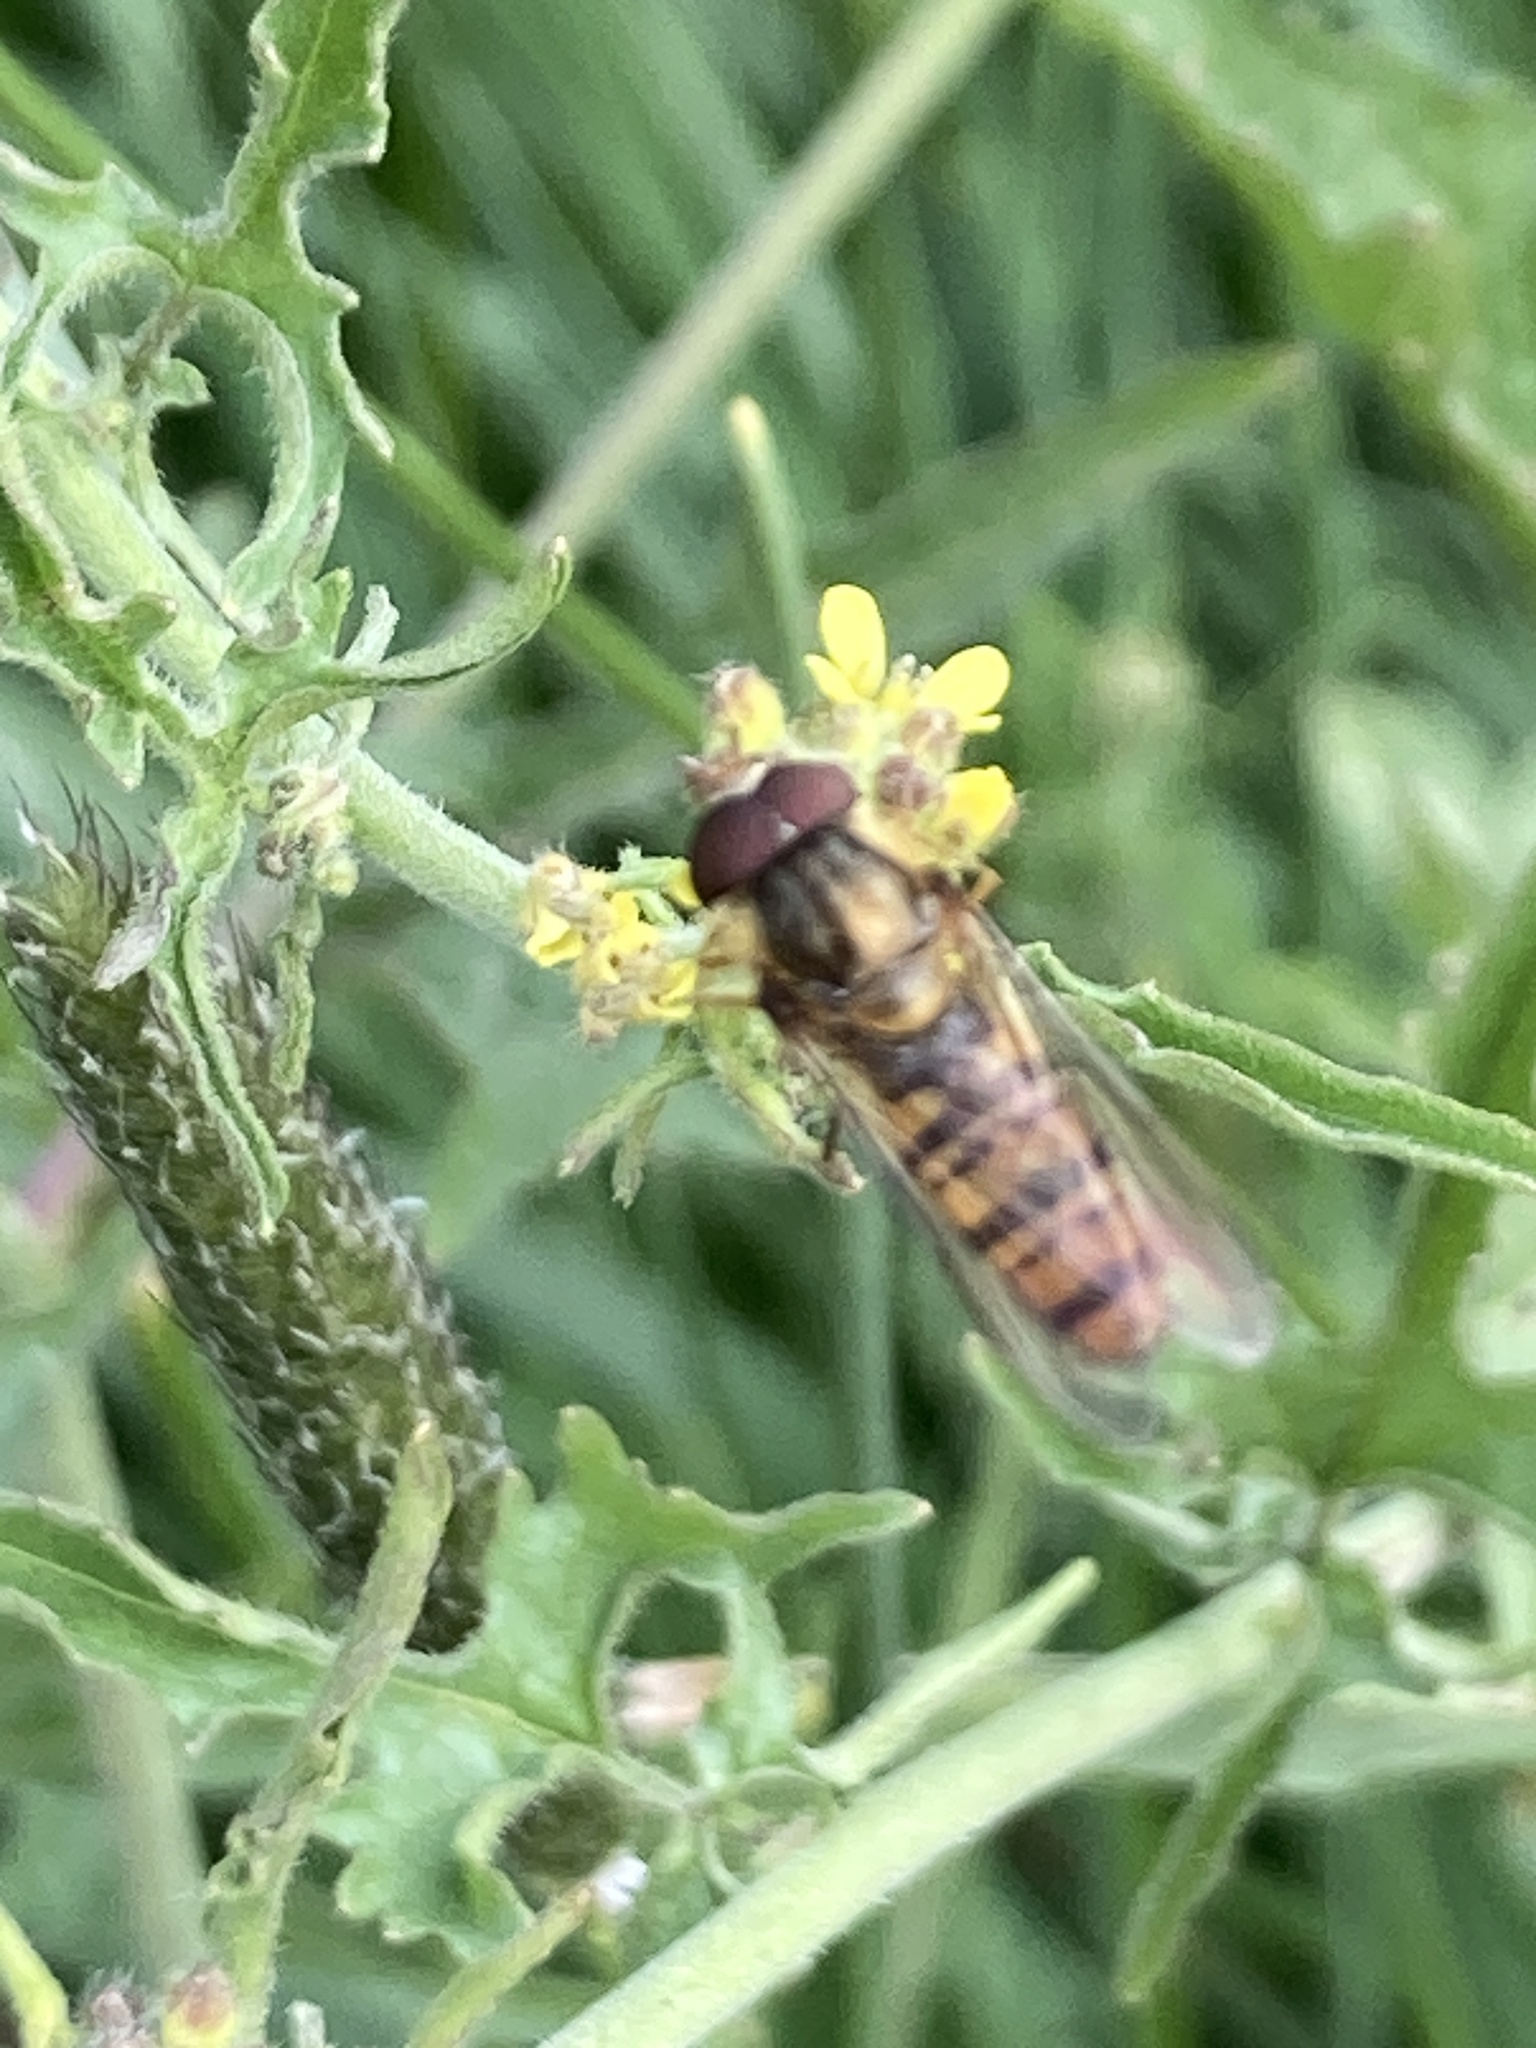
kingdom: Animalia
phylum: Arthropoda
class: Insecta
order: Diptera
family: Syrphidae
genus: Episyrphus
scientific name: Episyrphus balteatus
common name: Marmalade hoverfly
